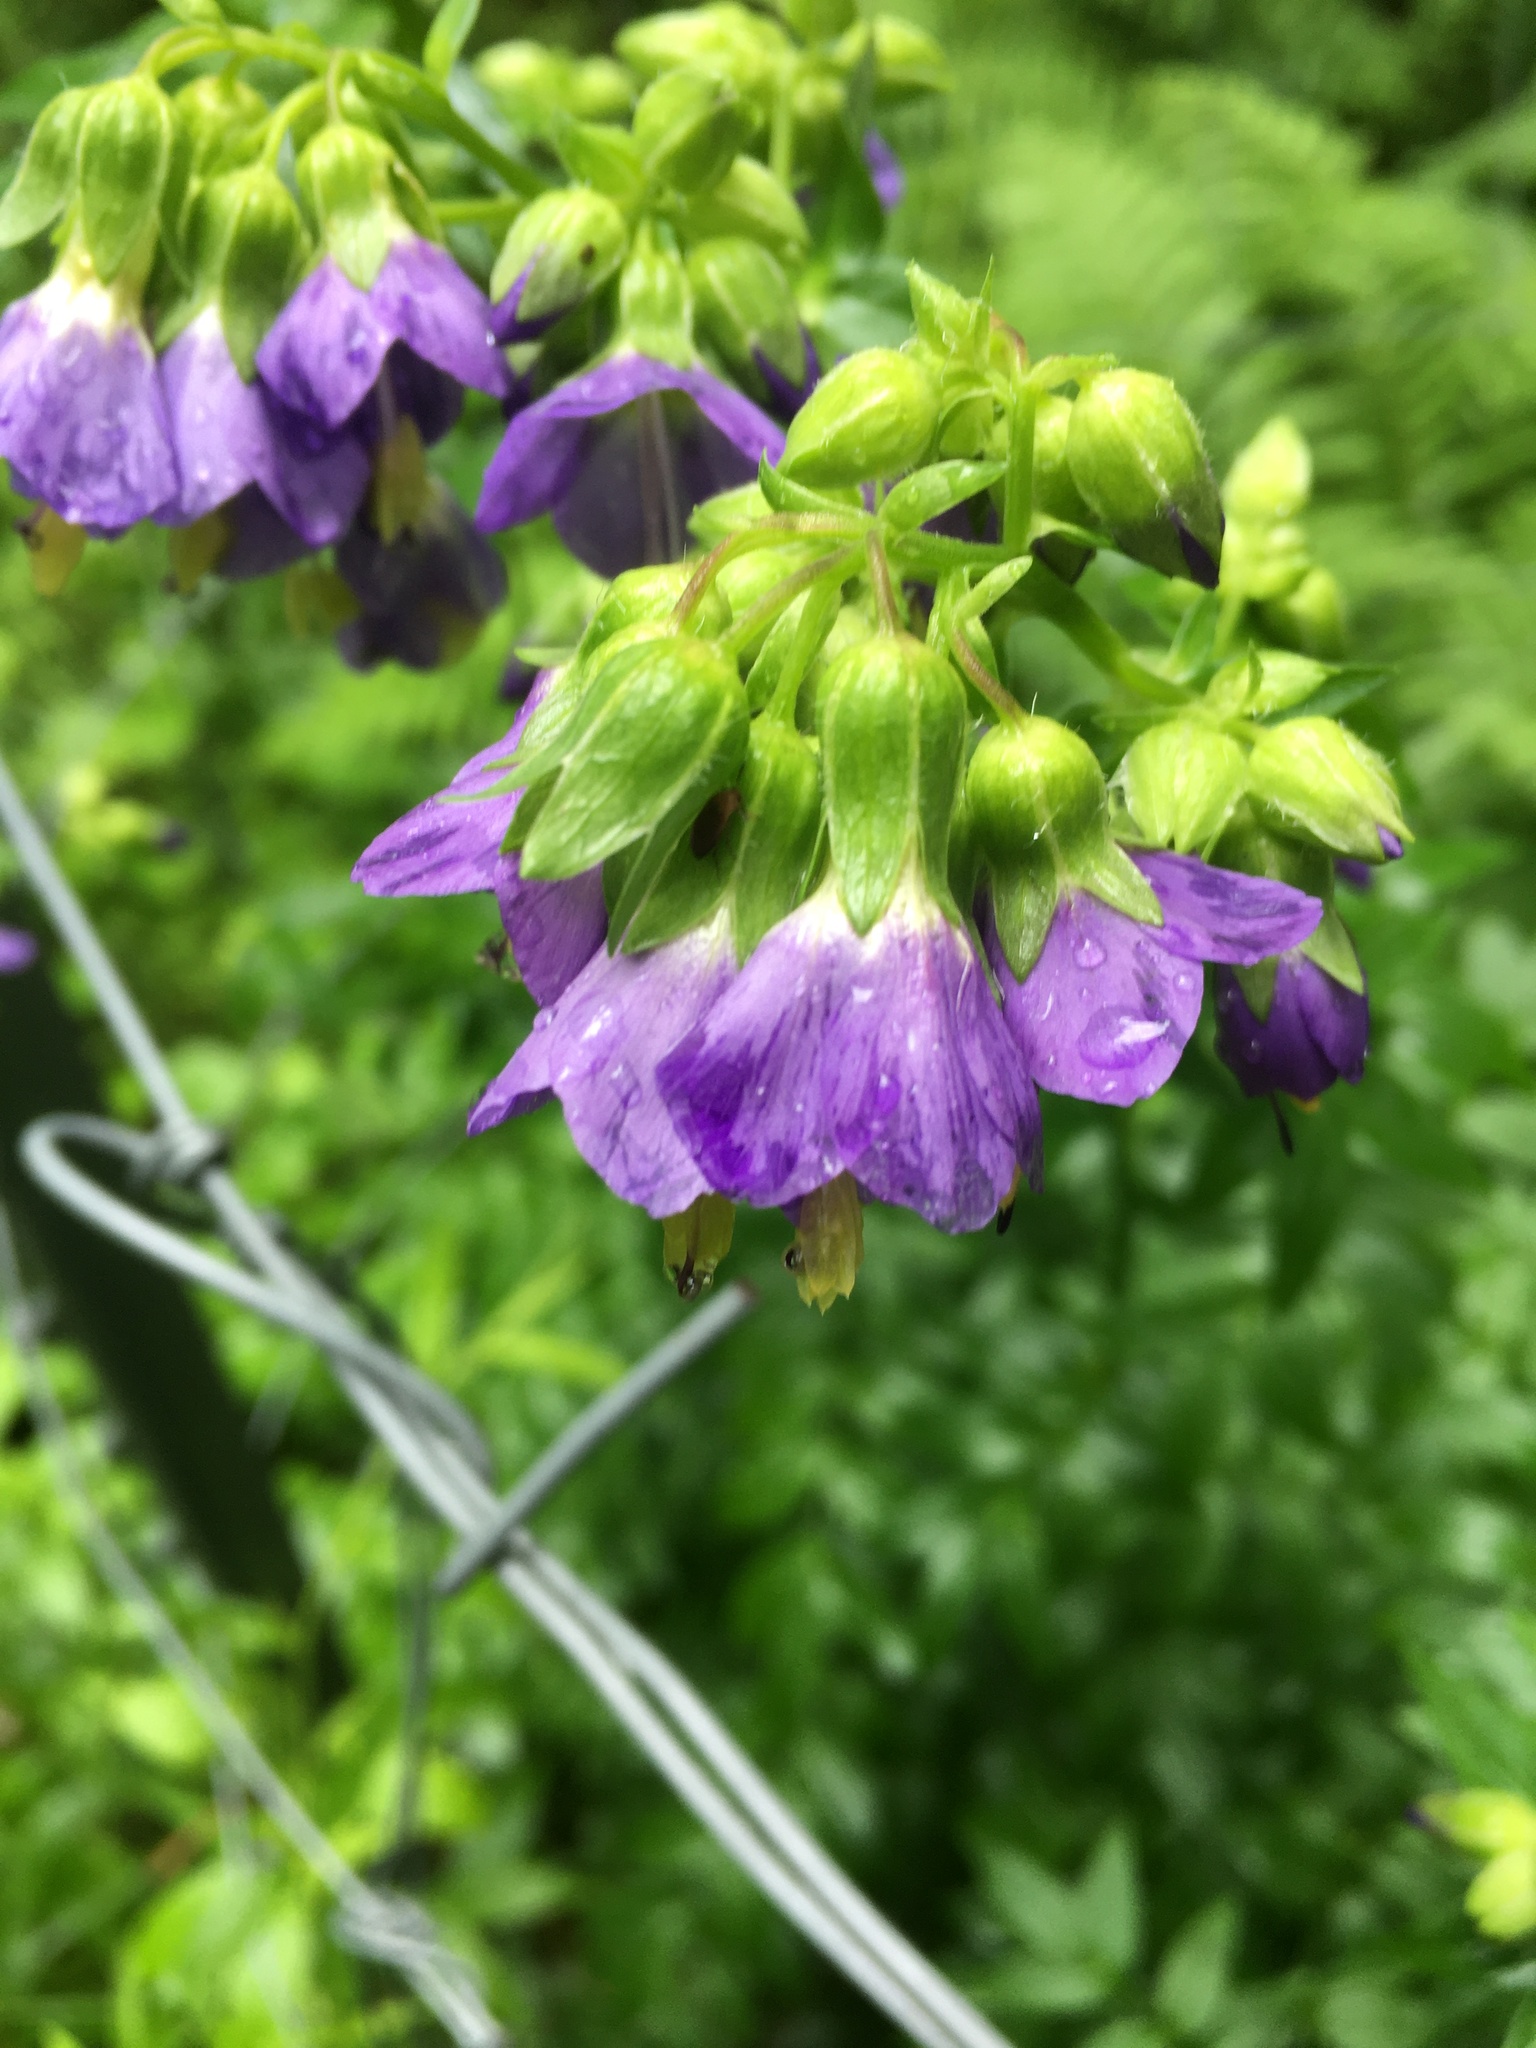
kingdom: Plantae
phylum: Tracheophyta
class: Magnoliopsida
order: Ericales
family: Polemoniaceae
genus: Polemonium
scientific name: Polemonium vanbruntiae
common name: Bog jacob's-ladder
